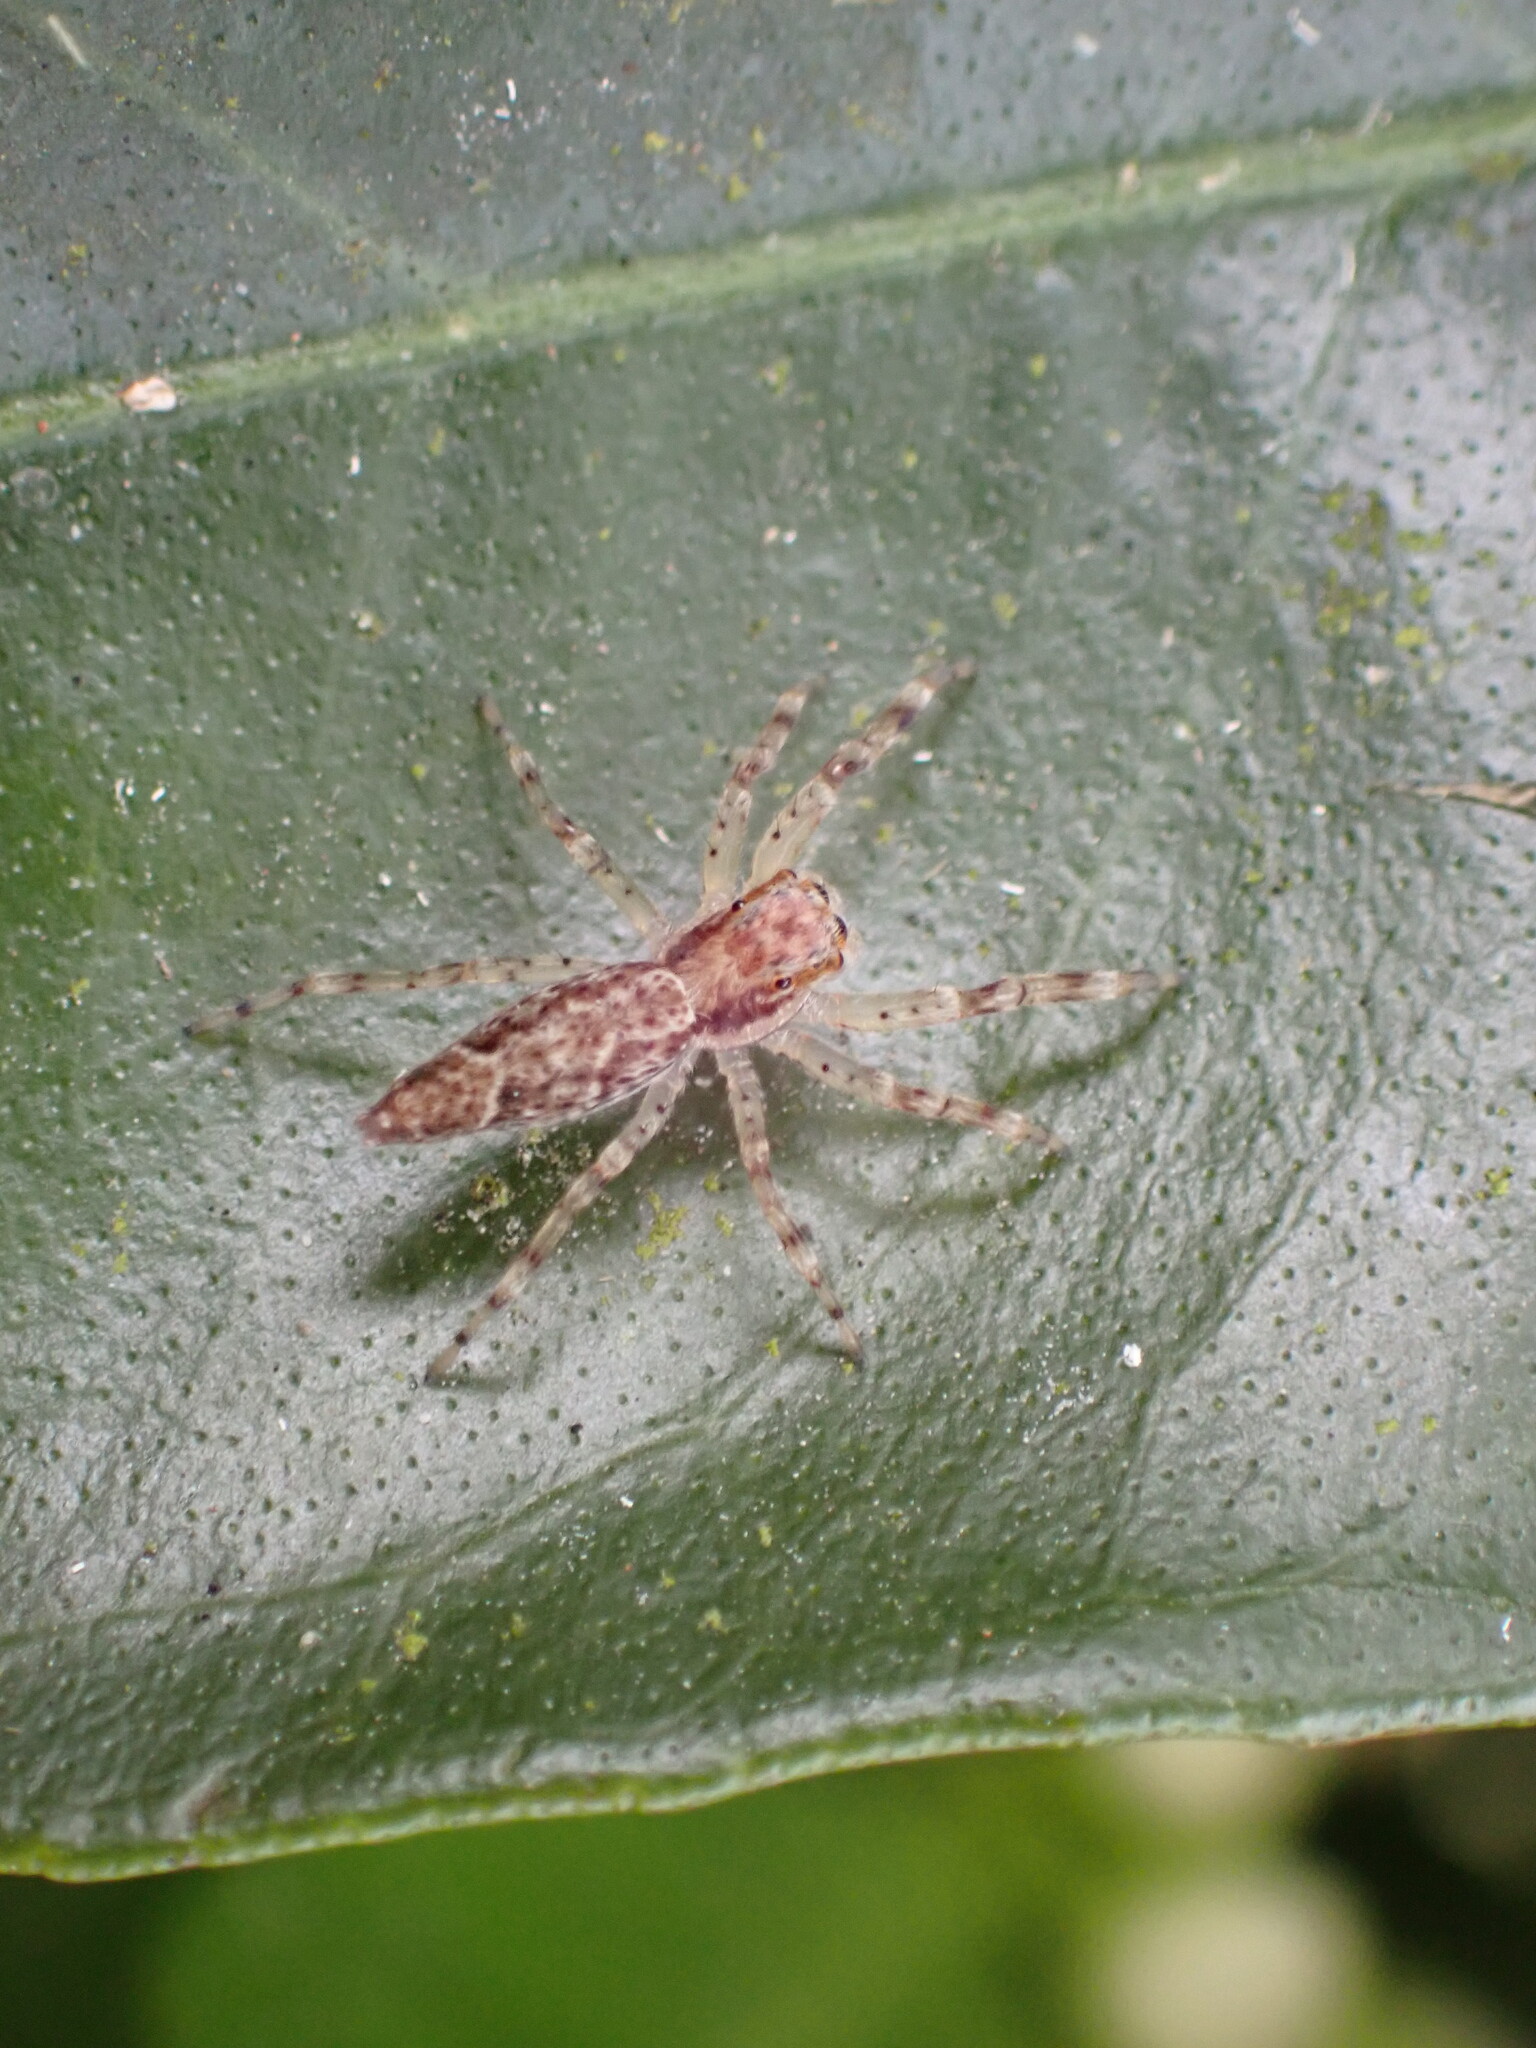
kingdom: Animalia
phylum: Arthropoda
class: Arachnida
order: Araneae
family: Salticidae
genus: Helpis
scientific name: Helpis minitabunda
